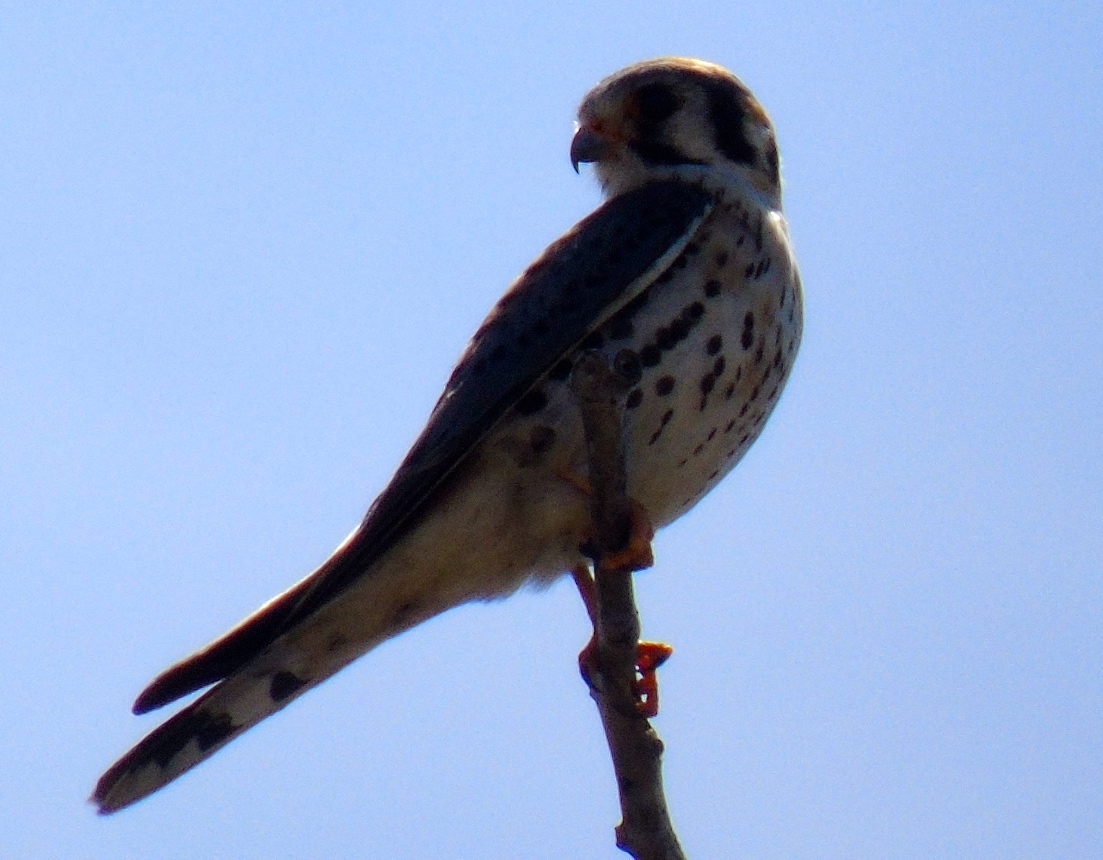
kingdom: Animalia
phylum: Chordata
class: Aves
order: Falconiformes
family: Falconidae
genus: Falco
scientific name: Falco sparverius
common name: American kestrel
